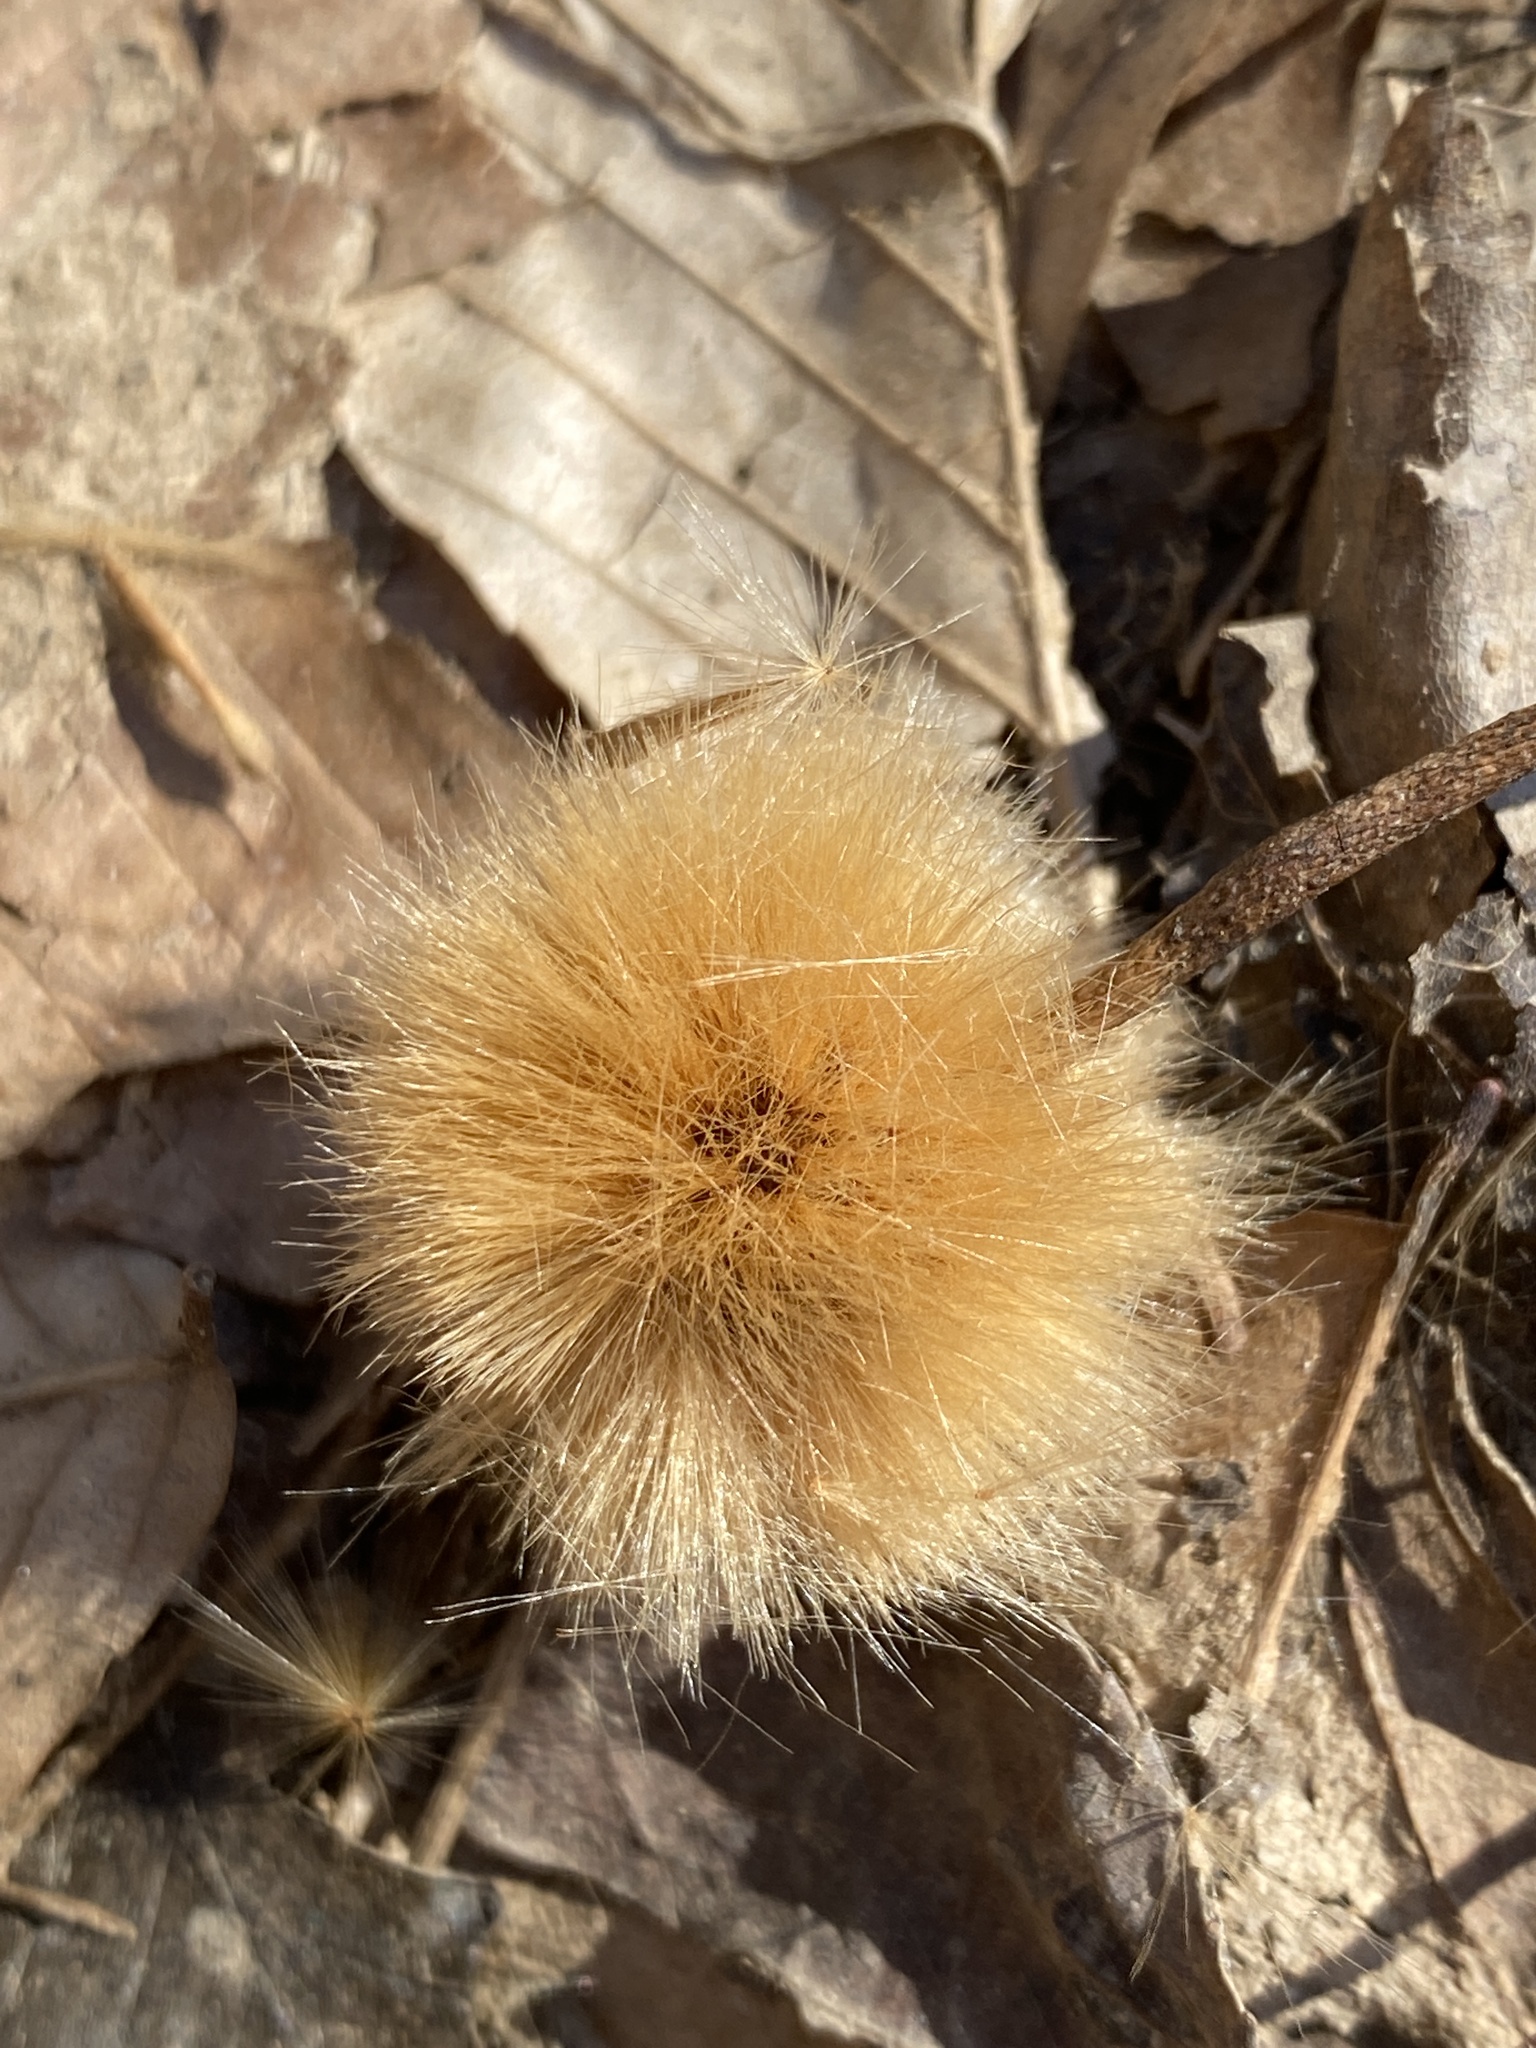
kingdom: Plantae
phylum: Tracheophyta
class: Magnoliopsida
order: Proteales
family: Platanaceae
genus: Platanus
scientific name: Platanus occidentalis
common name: American sycamore
